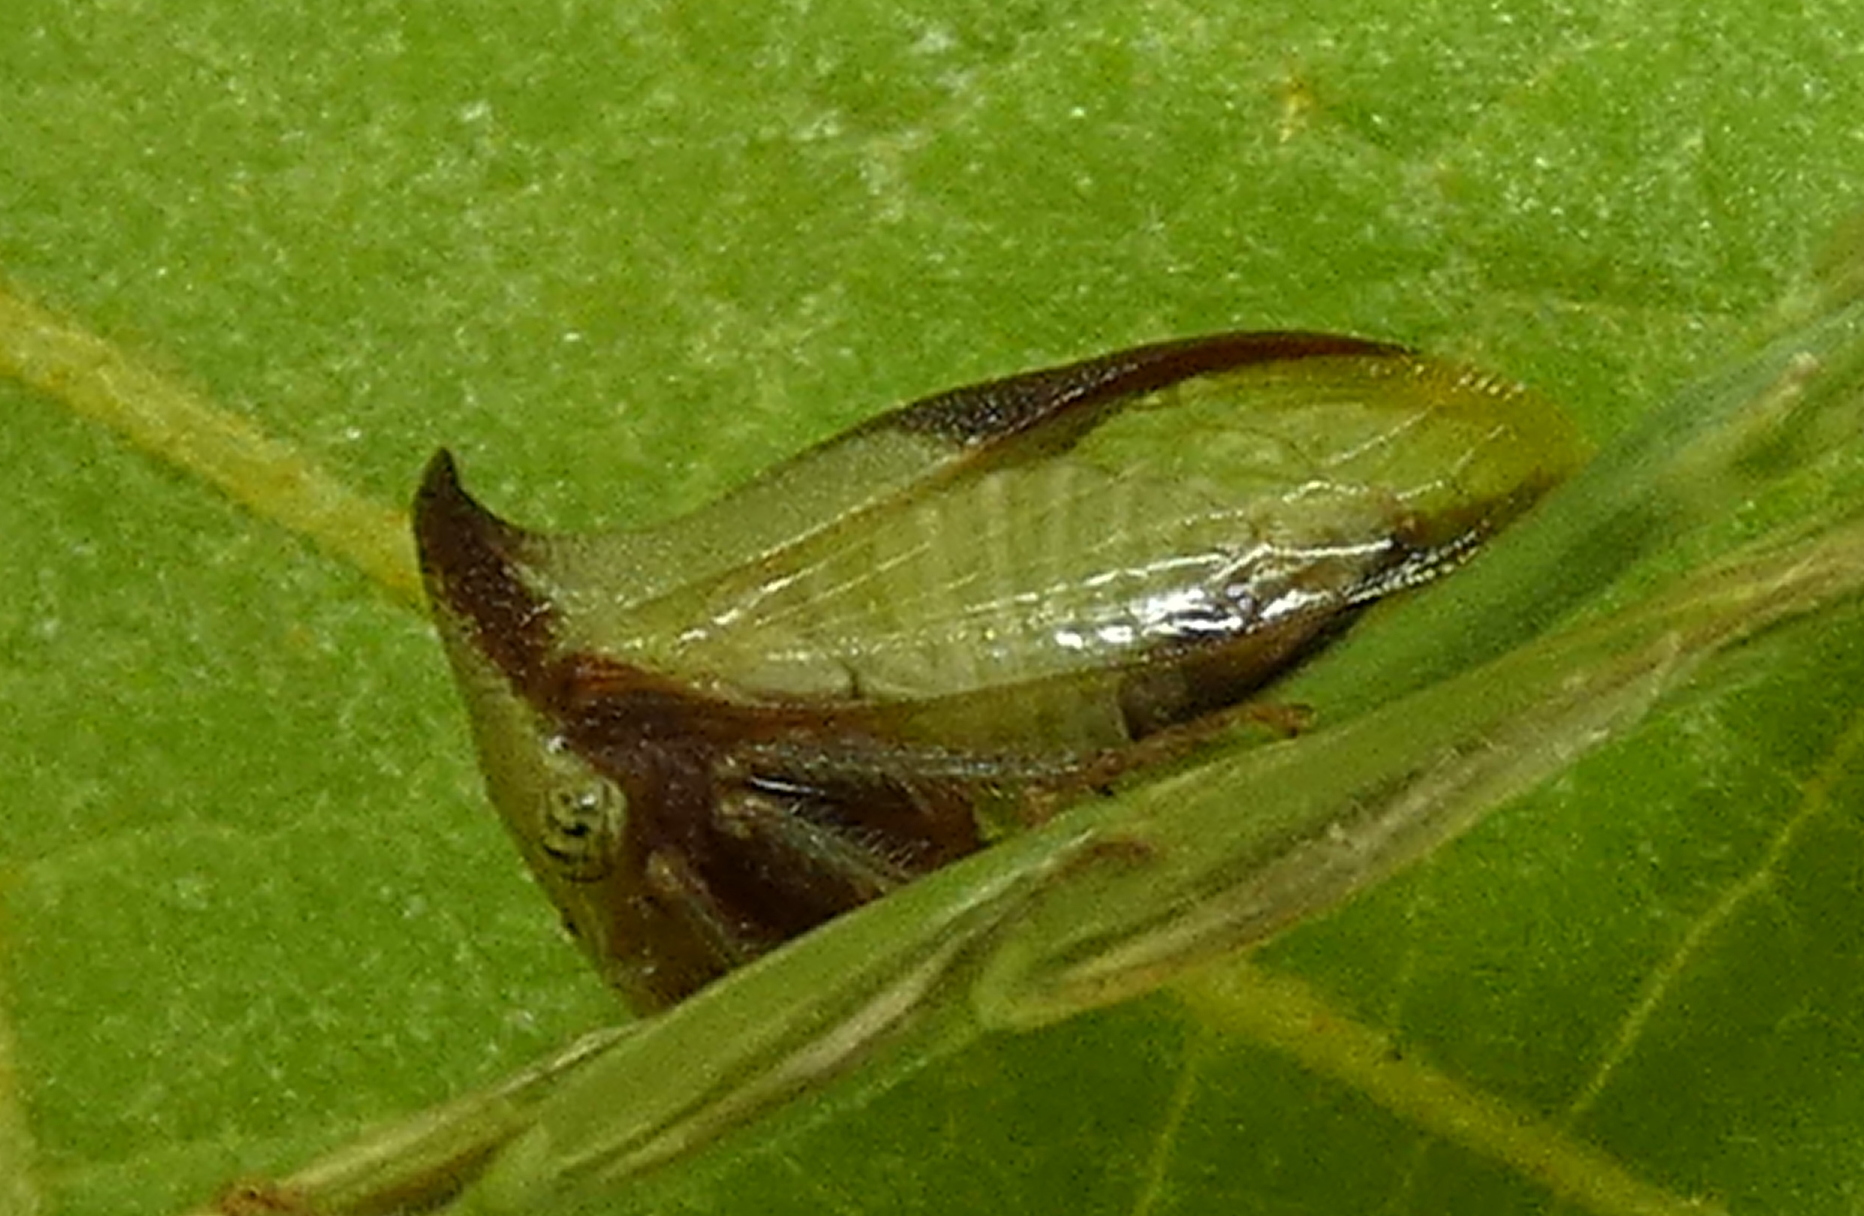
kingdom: Animalia
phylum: Arthropoda
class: Insecta
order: Hemiptera
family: Membracidae
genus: Ceresa
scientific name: Ceresa ustulata
